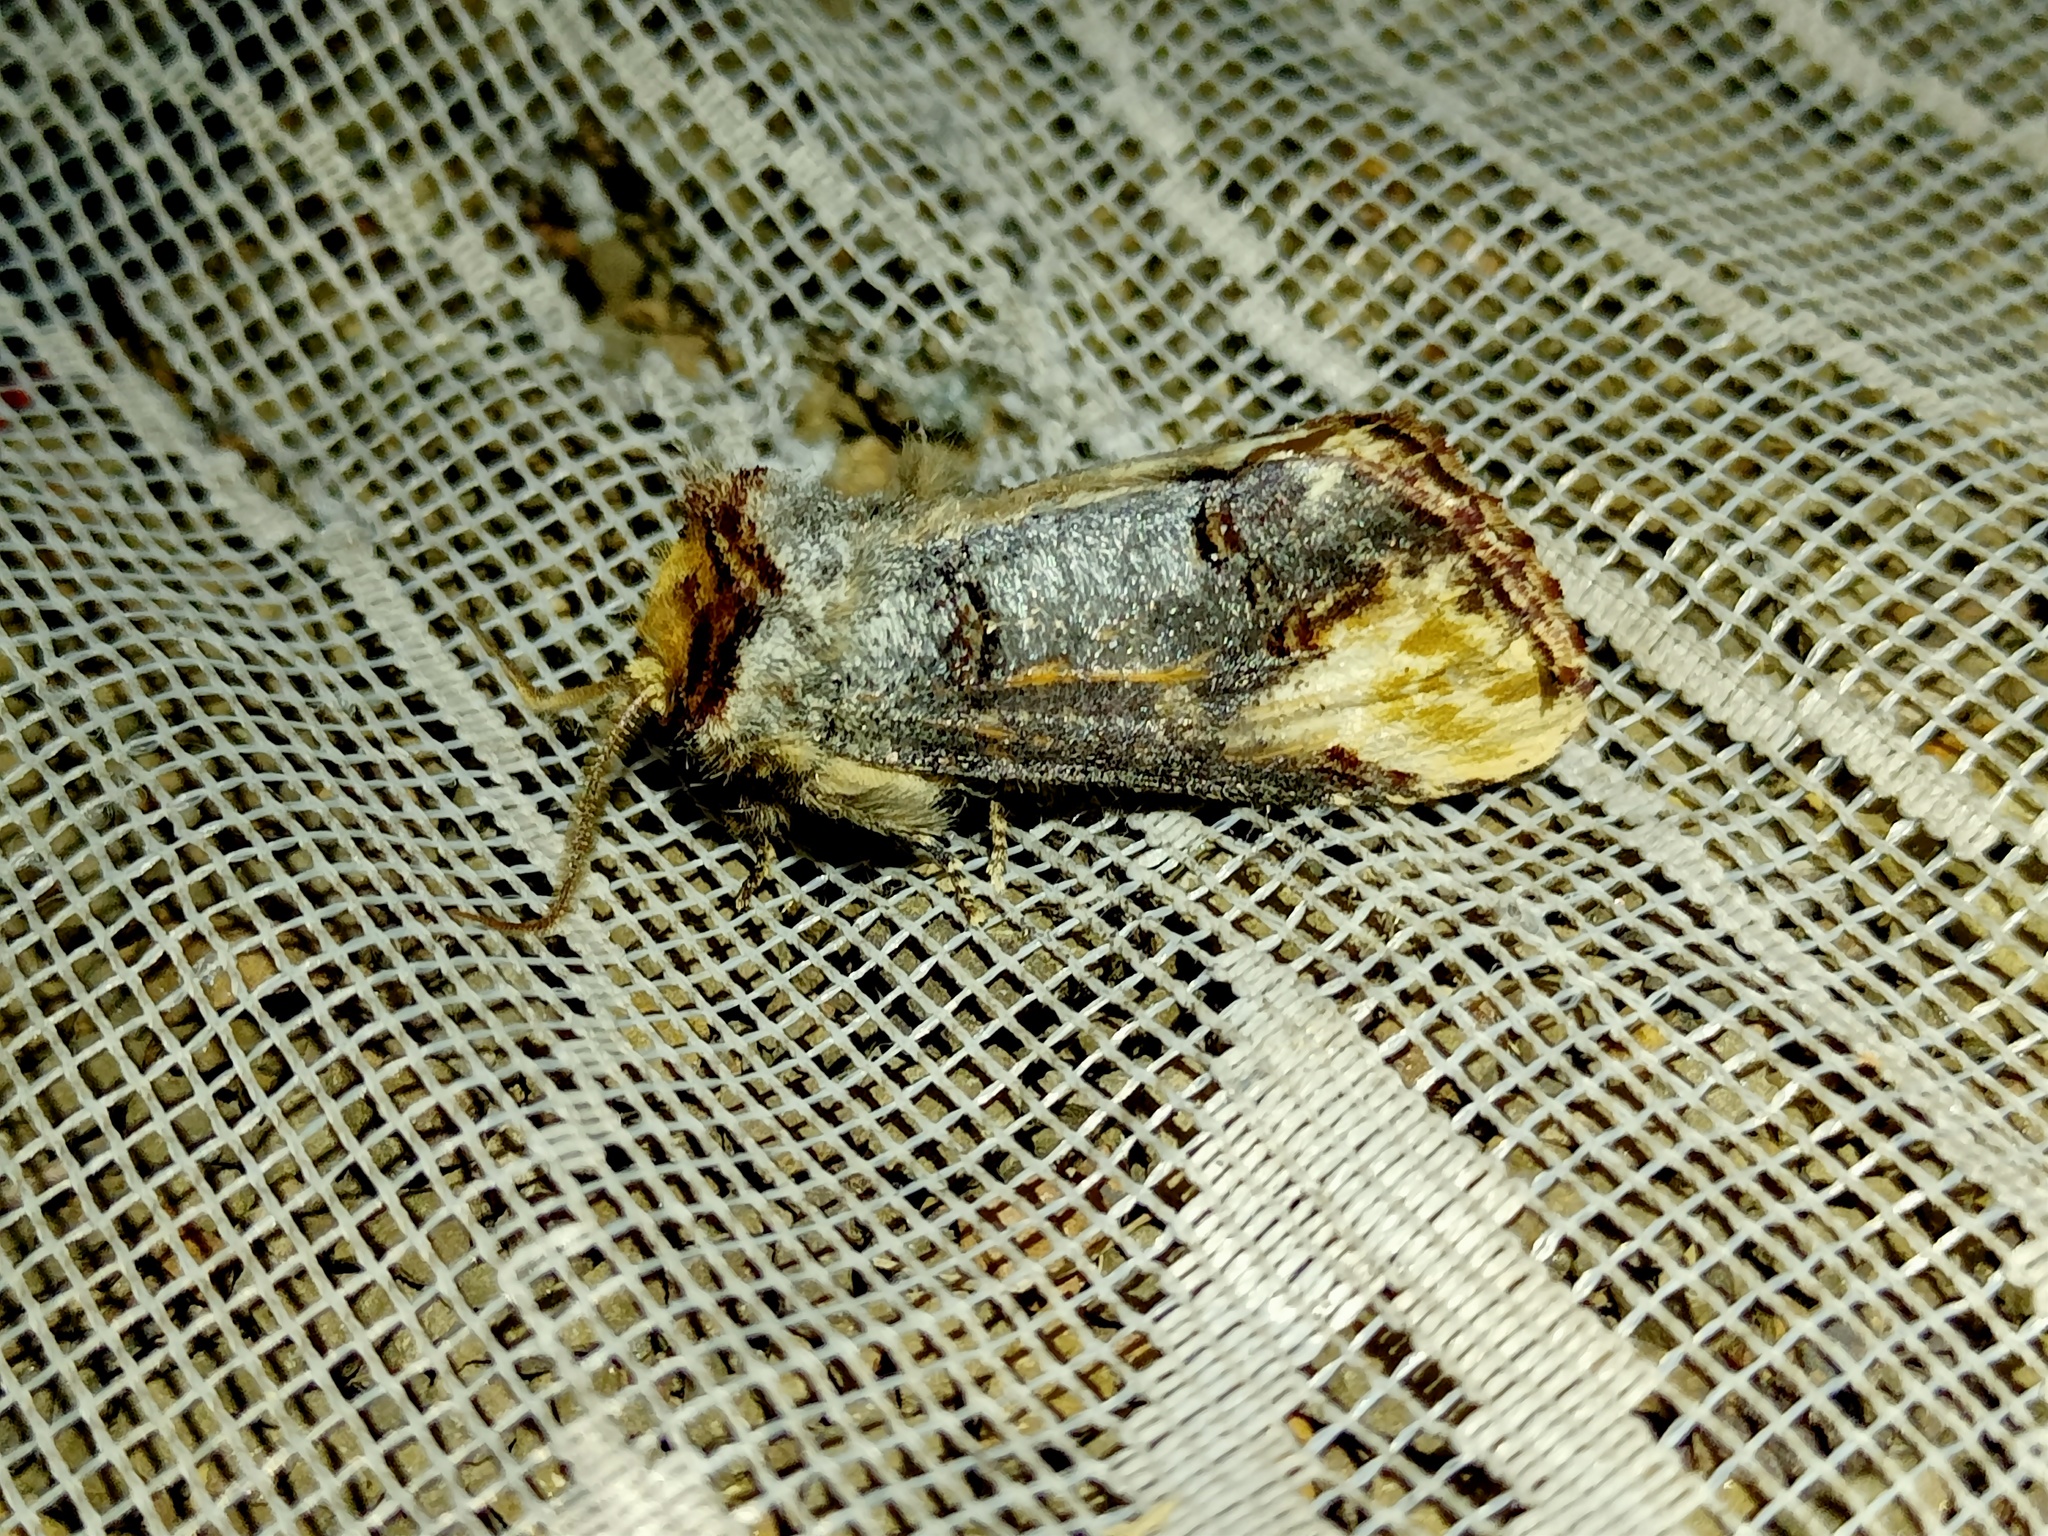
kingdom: Animalia
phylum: Arthropoda
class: Insecta
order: Lepidoptera
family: Notodontidae
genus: Phalera
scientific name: Phalera bucephala
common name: Buff-tip
